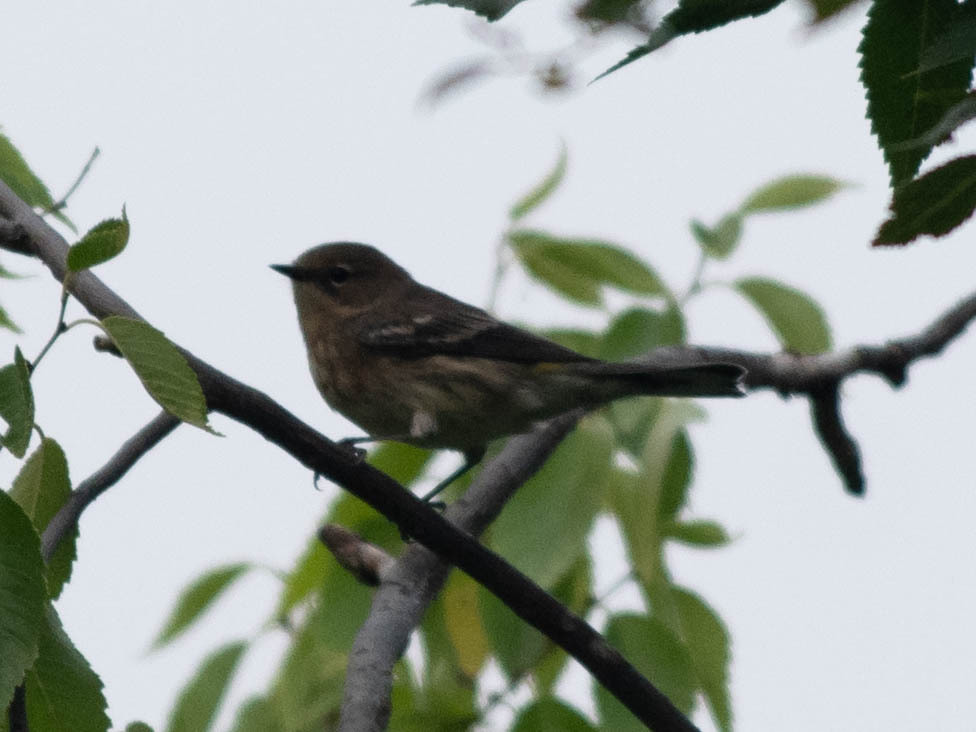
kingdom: Animalia
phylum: Chordata
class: Aves
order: Passeriformes
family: Parulidae
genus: Setophaga
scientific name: Setophaga coronata
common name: Myrtle warbler
